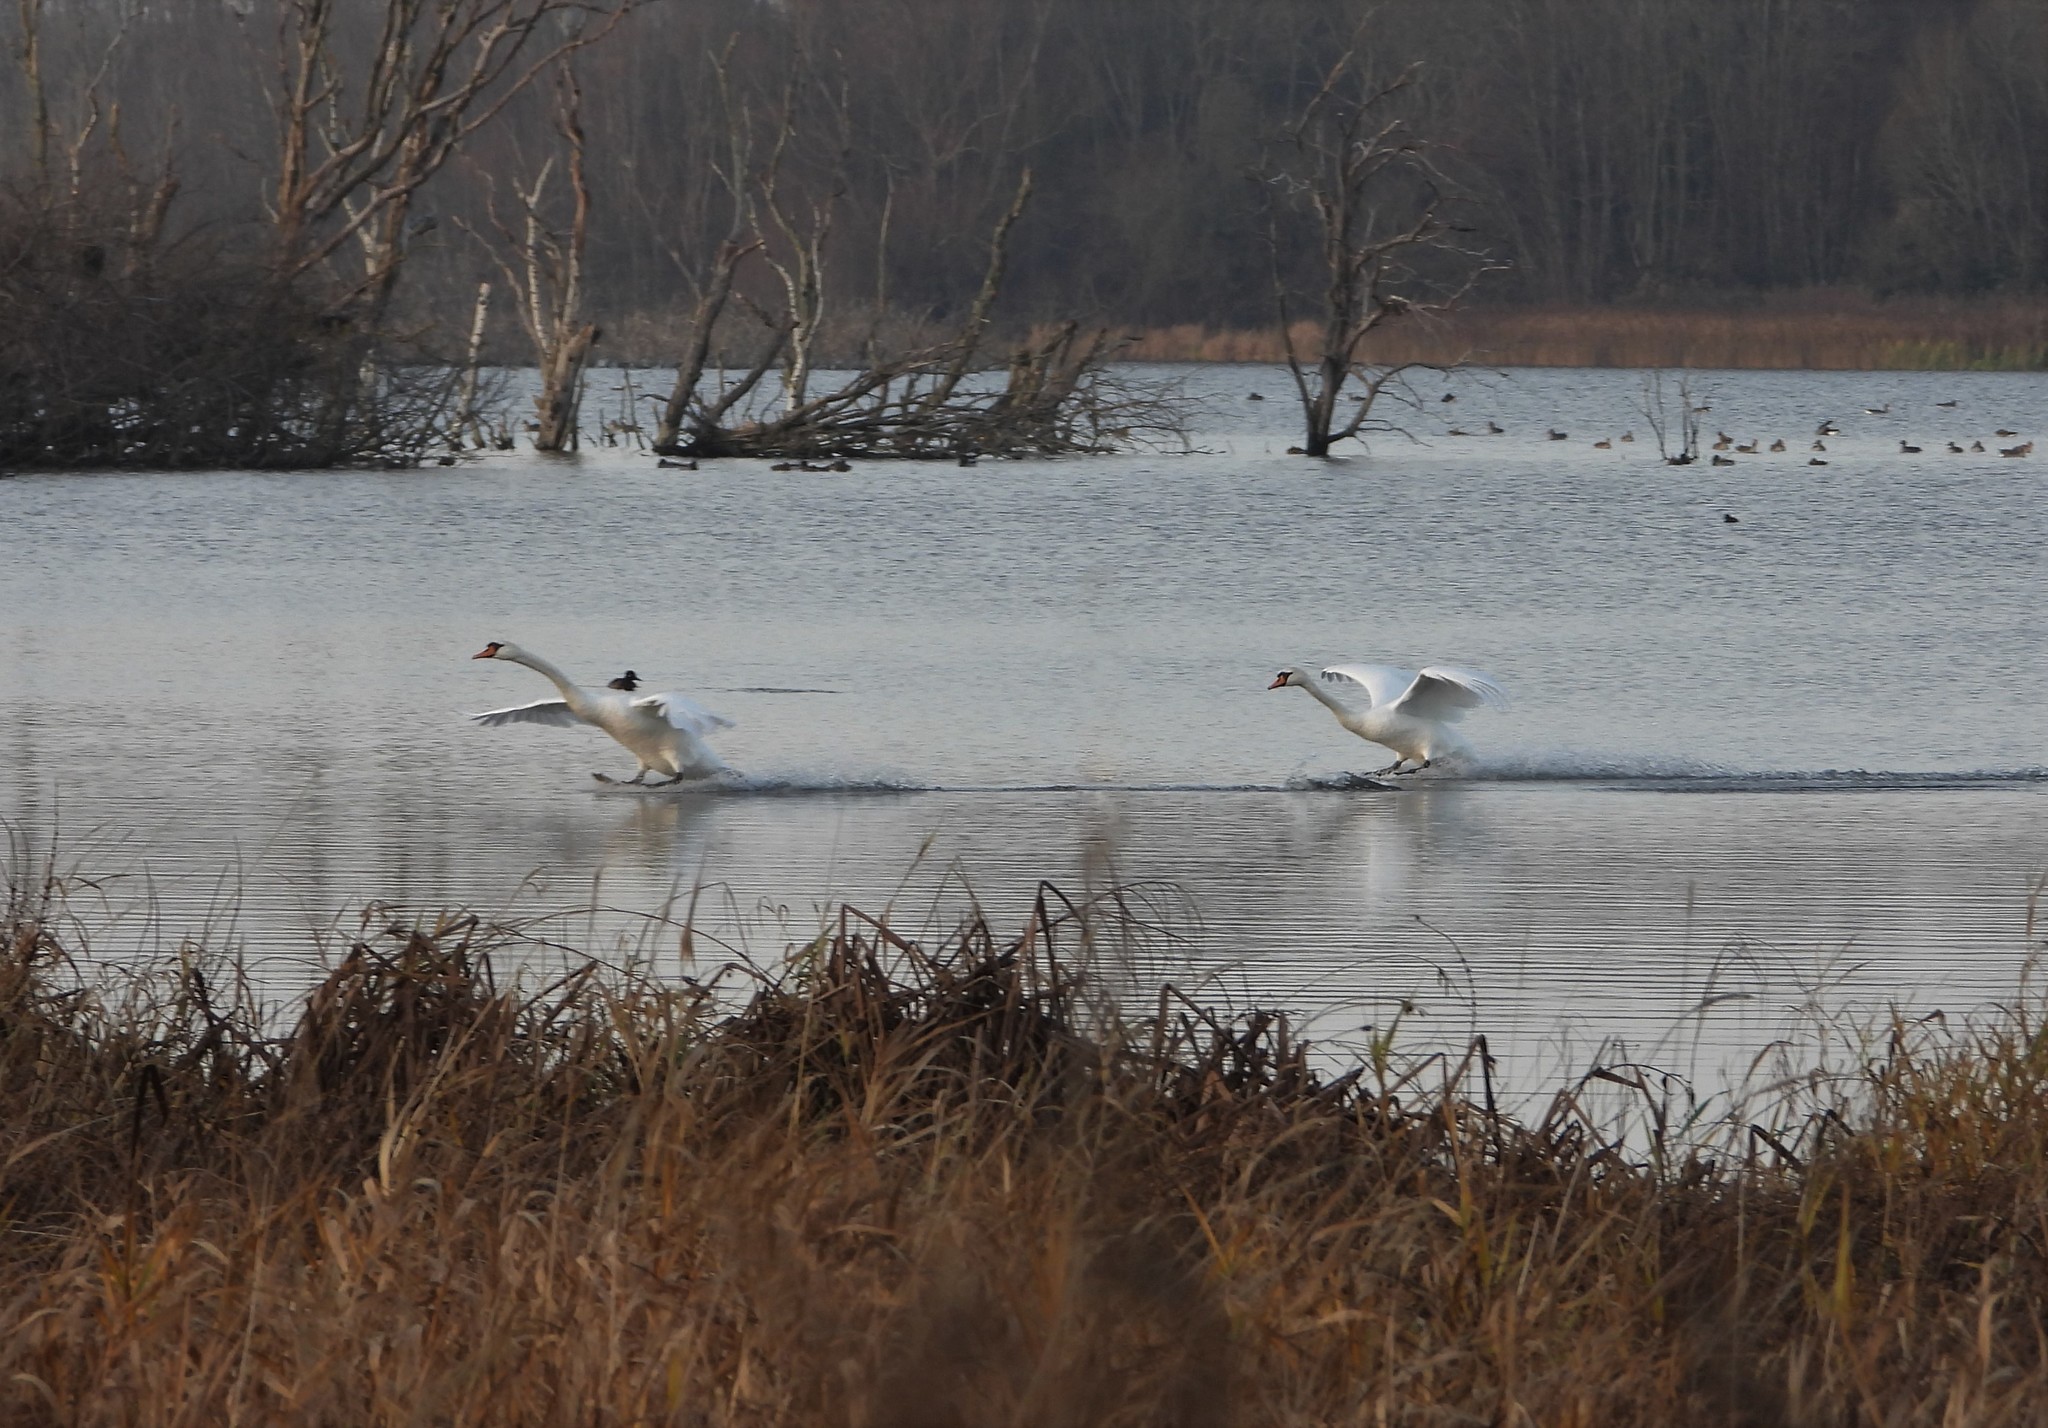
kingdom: Animalia
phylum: Chordata
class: Aves
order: Anseriformes
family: Anatidae
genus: Cygnus
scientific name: Cygnus olor
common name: Mute swan
